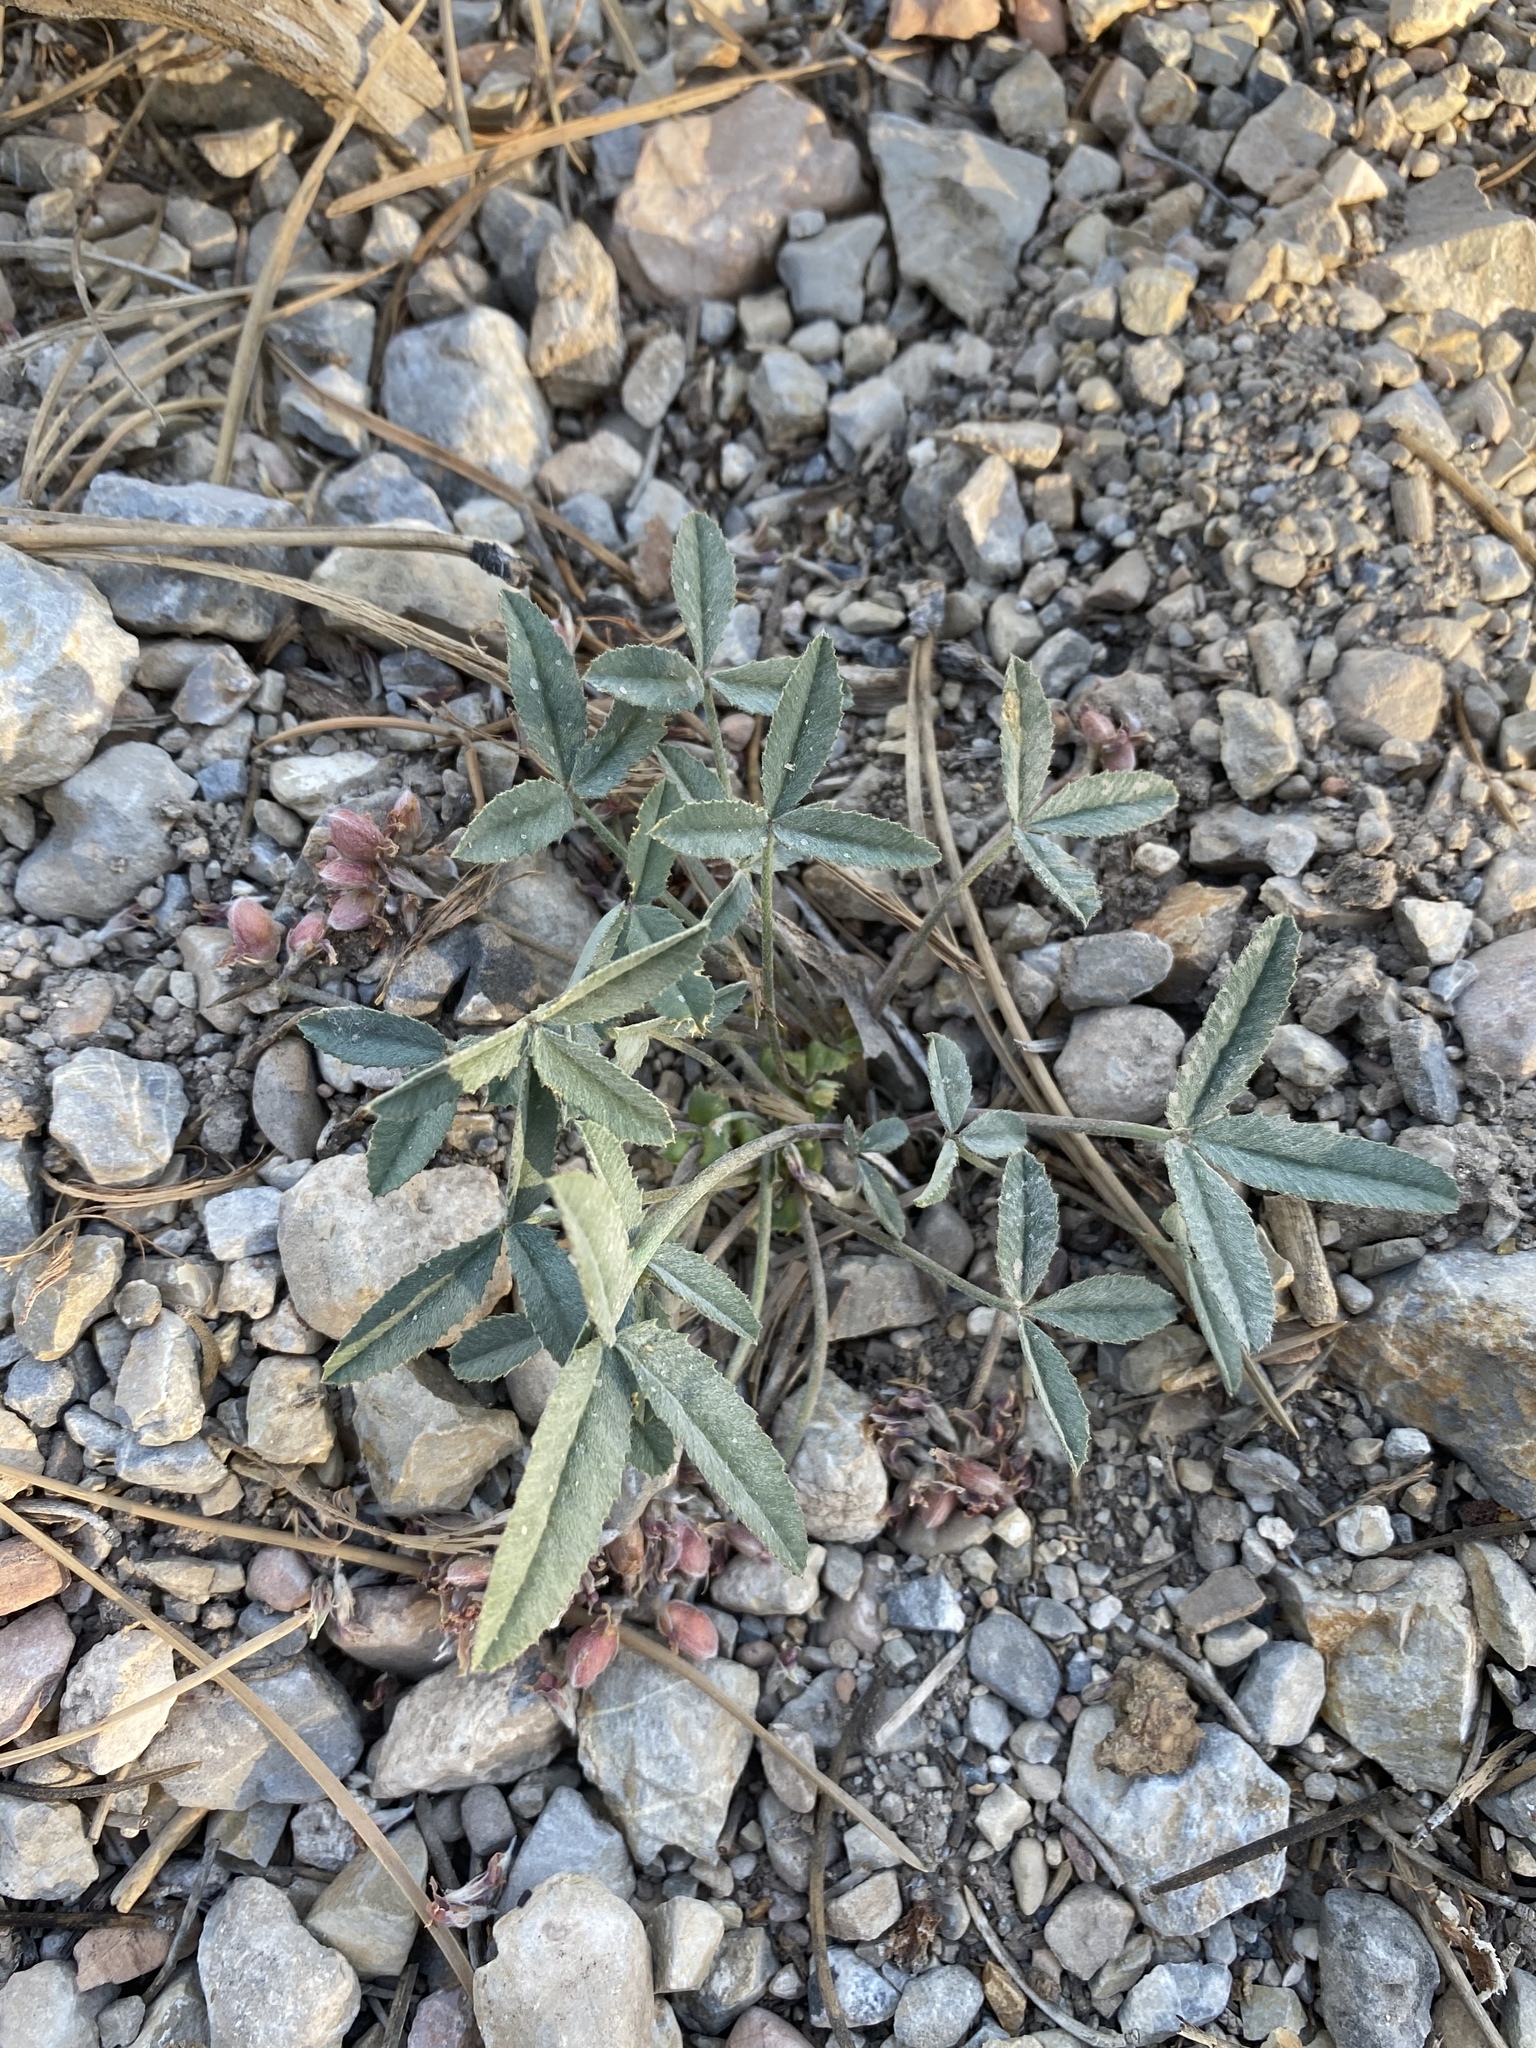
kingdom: Plantae
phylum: Tracheophyta
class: Magnoliopsida
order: Fabales
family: Fabaceae
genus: Trifolium
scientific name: Trifolium gymnocarpon
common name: Tufted clover
